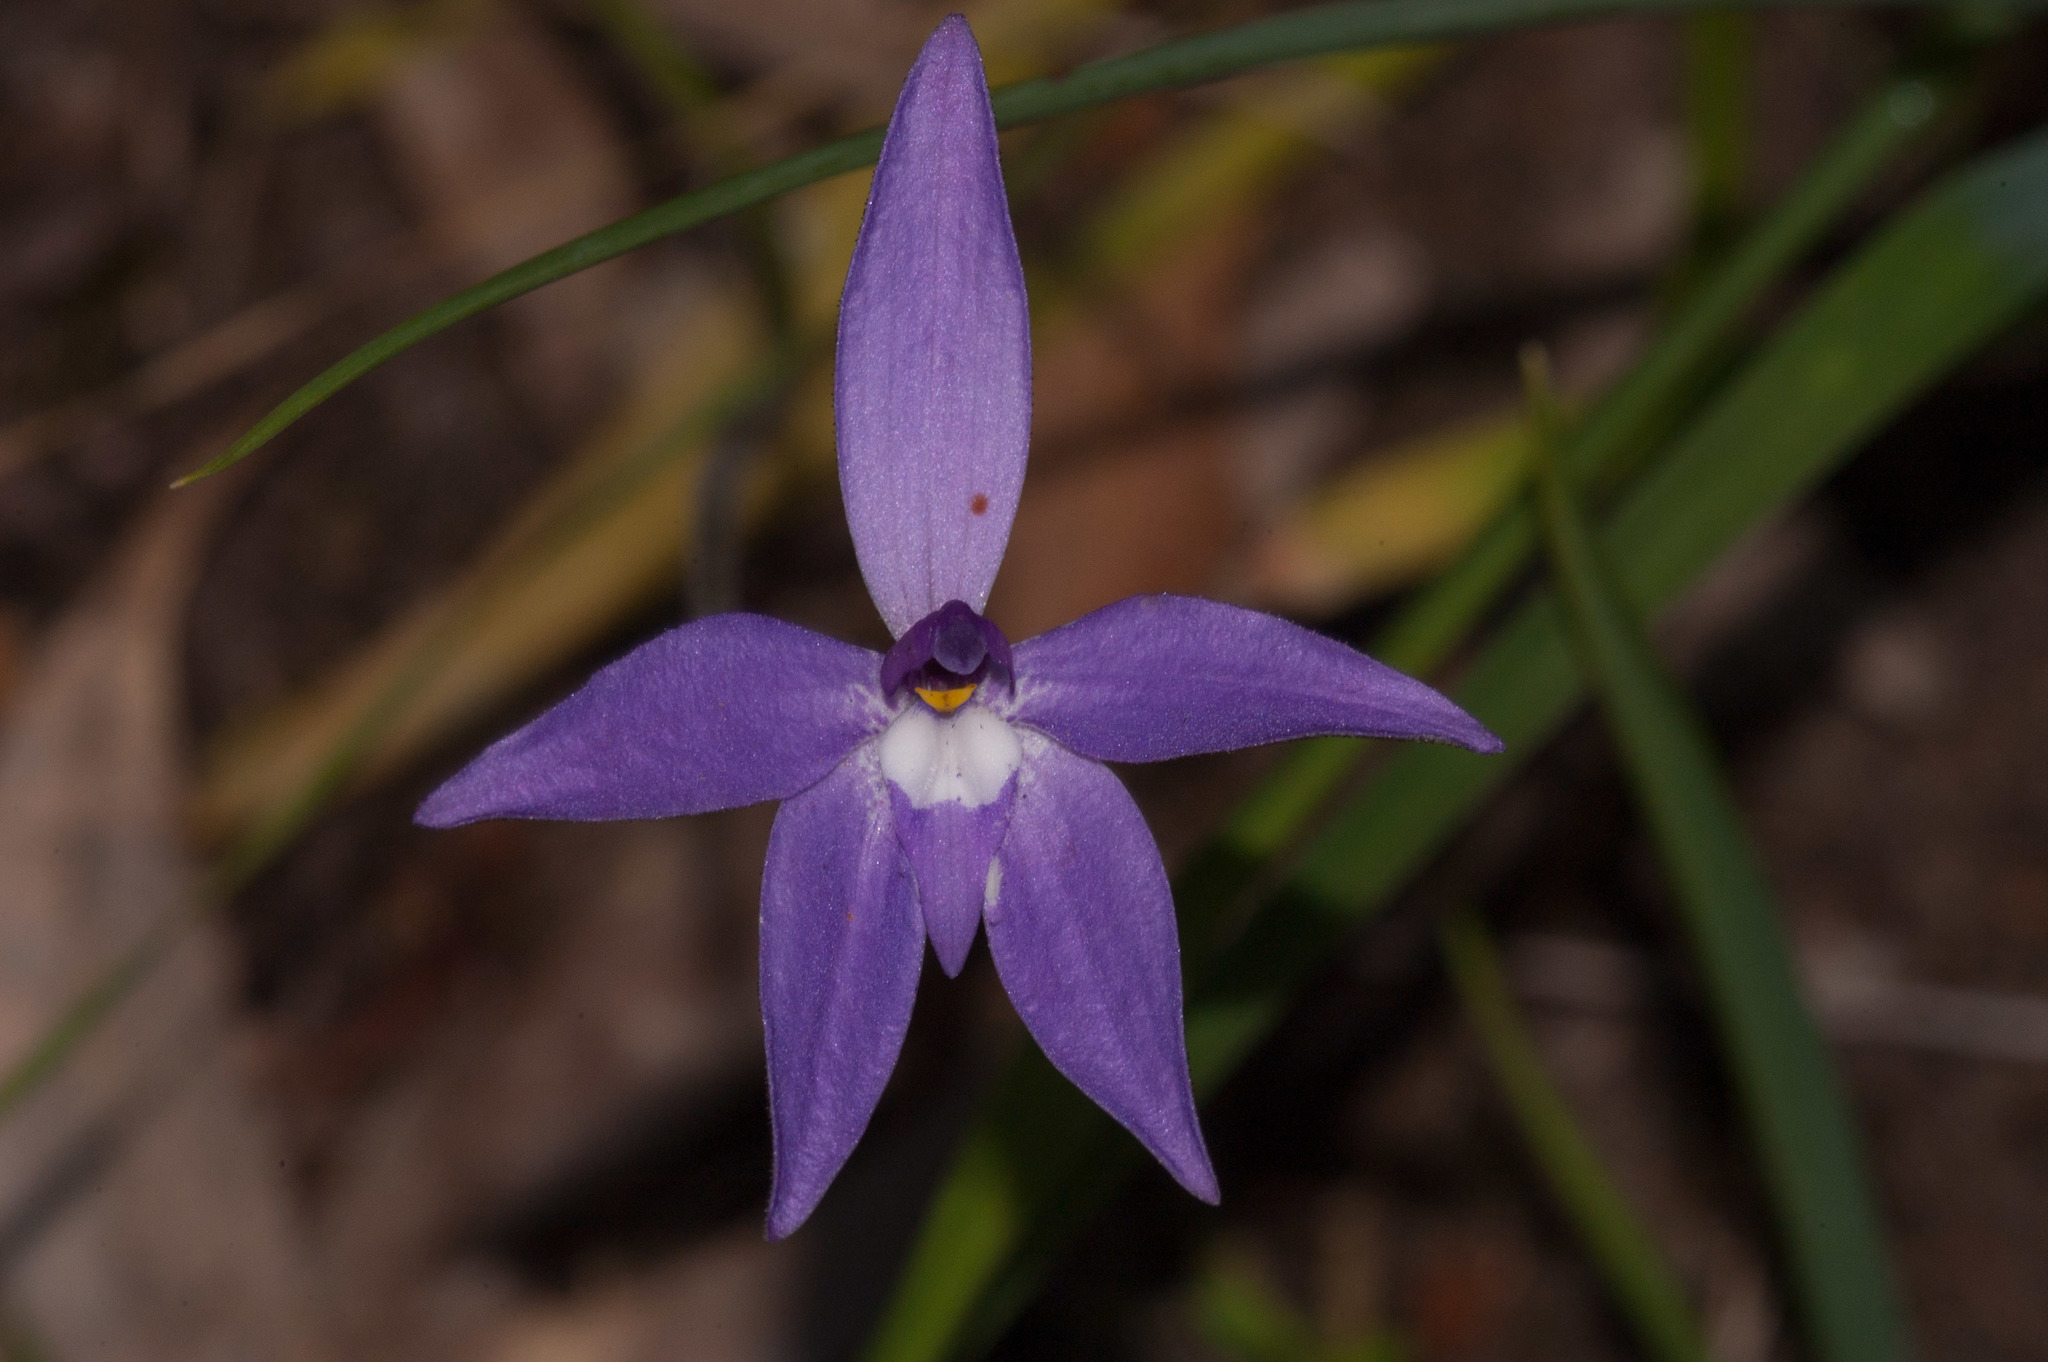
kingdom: Plantae
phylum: Tracheophyta
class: Liliopsida
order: Asparagales
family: Orchidaceae
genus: Caladenia
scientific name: Caladenia major
